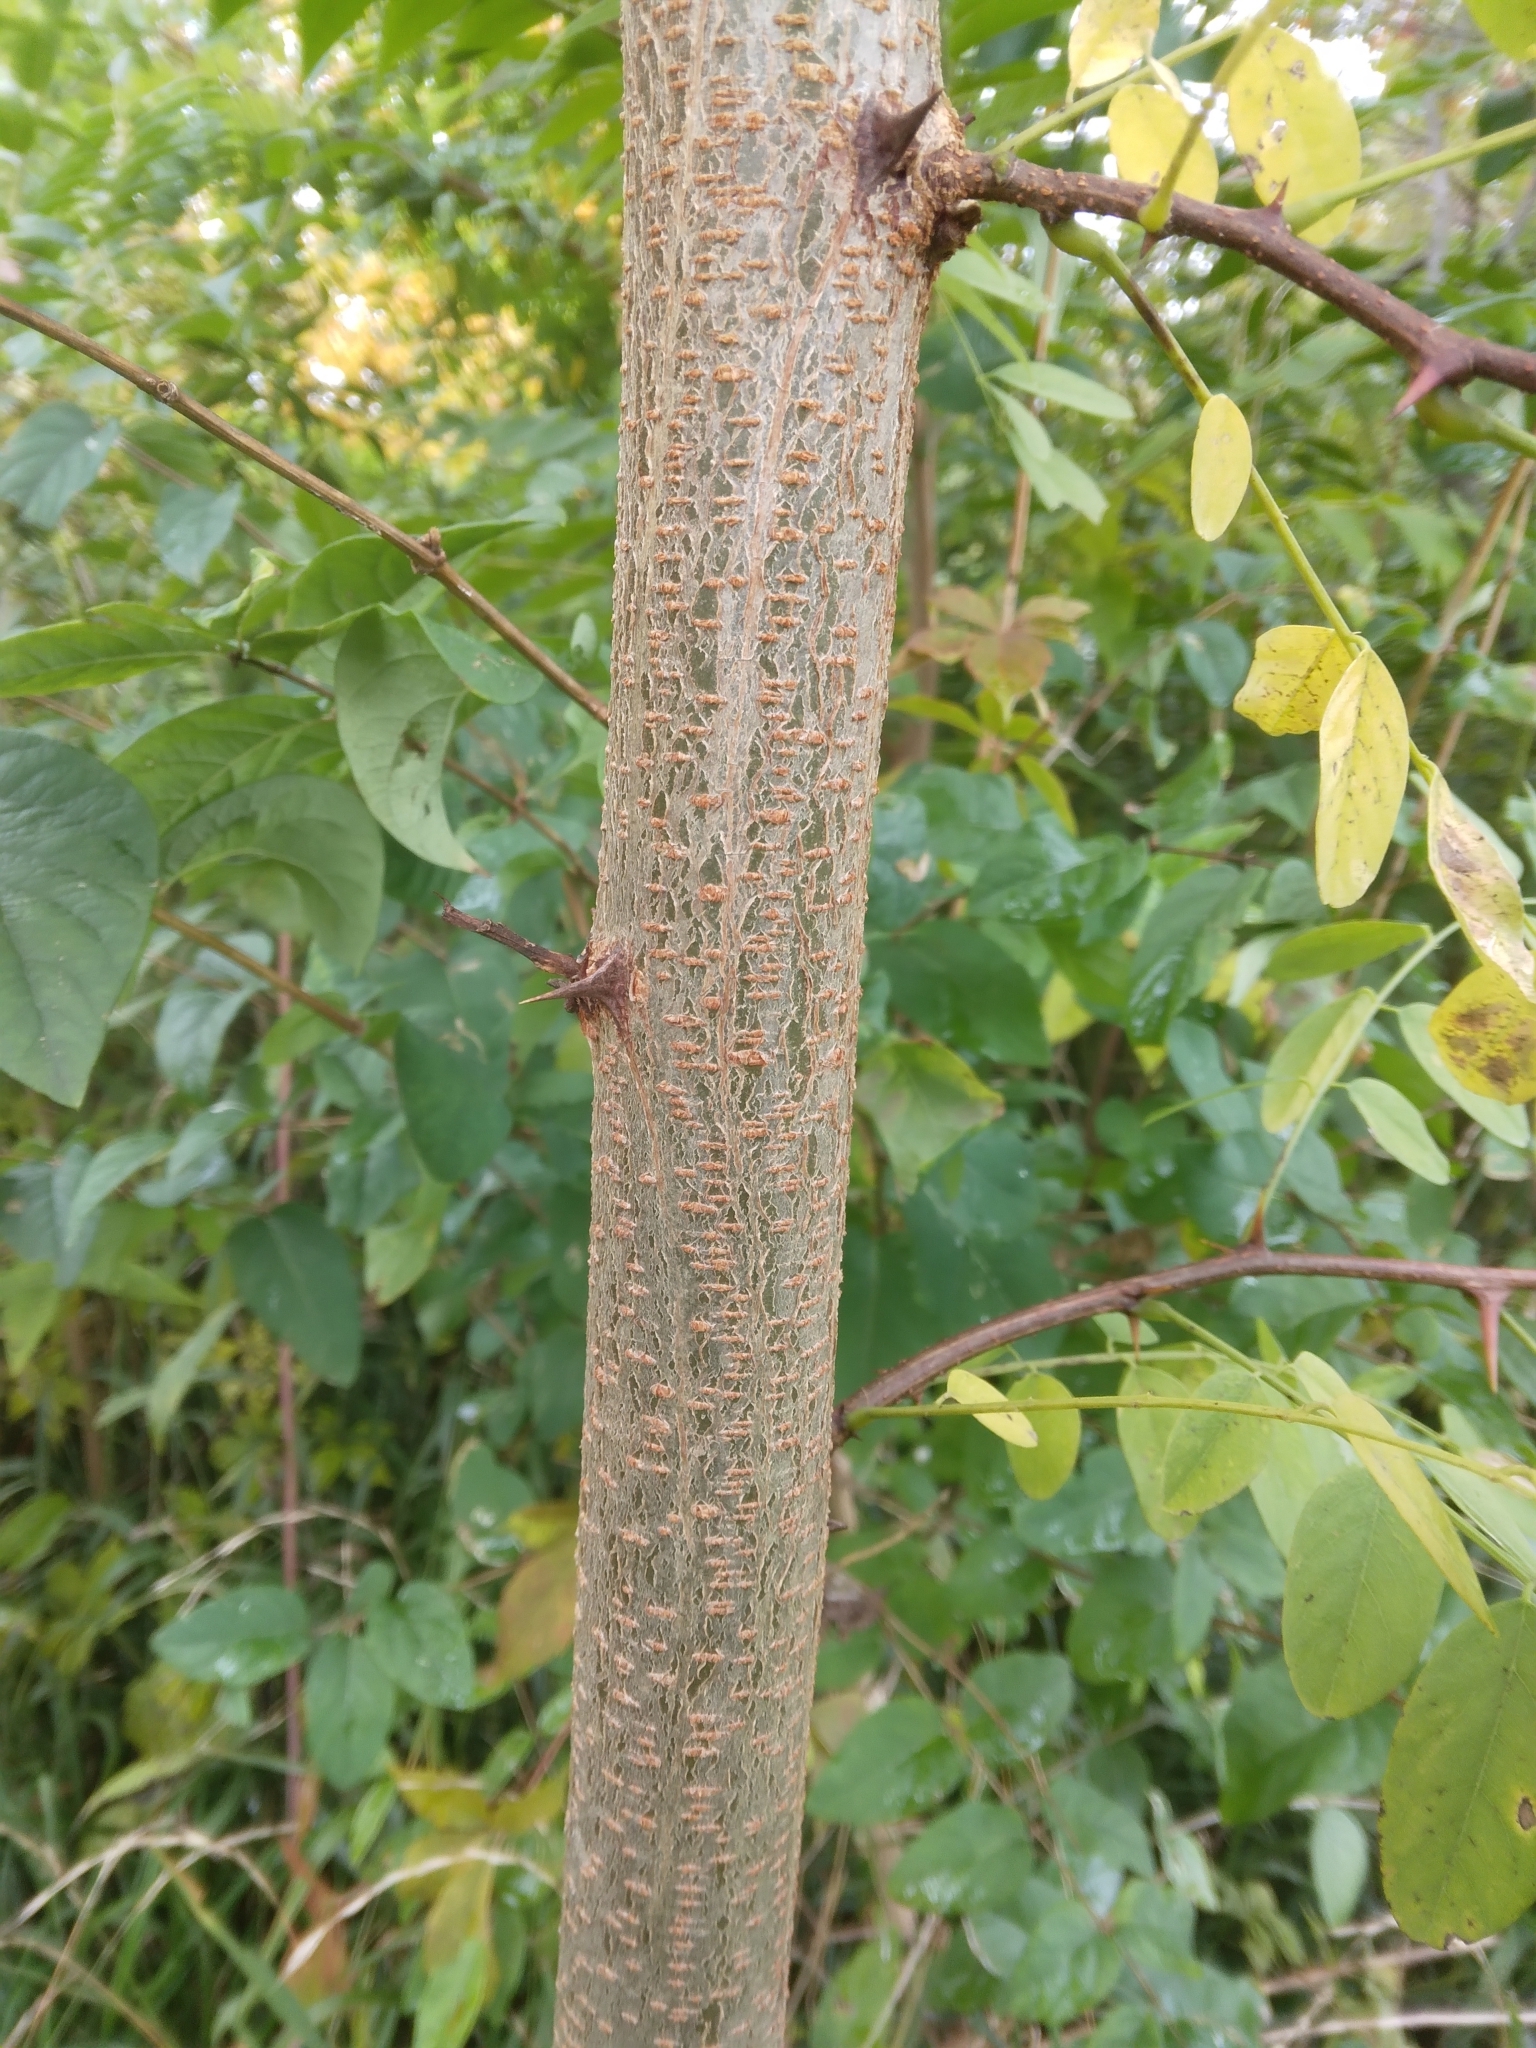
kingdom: Plantae
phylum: Tracheophyta
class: Magnoliopsida
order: Fabales
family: Fabaceae
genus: Robinia
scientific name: Robinia pseudoacacia
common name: Black locust
